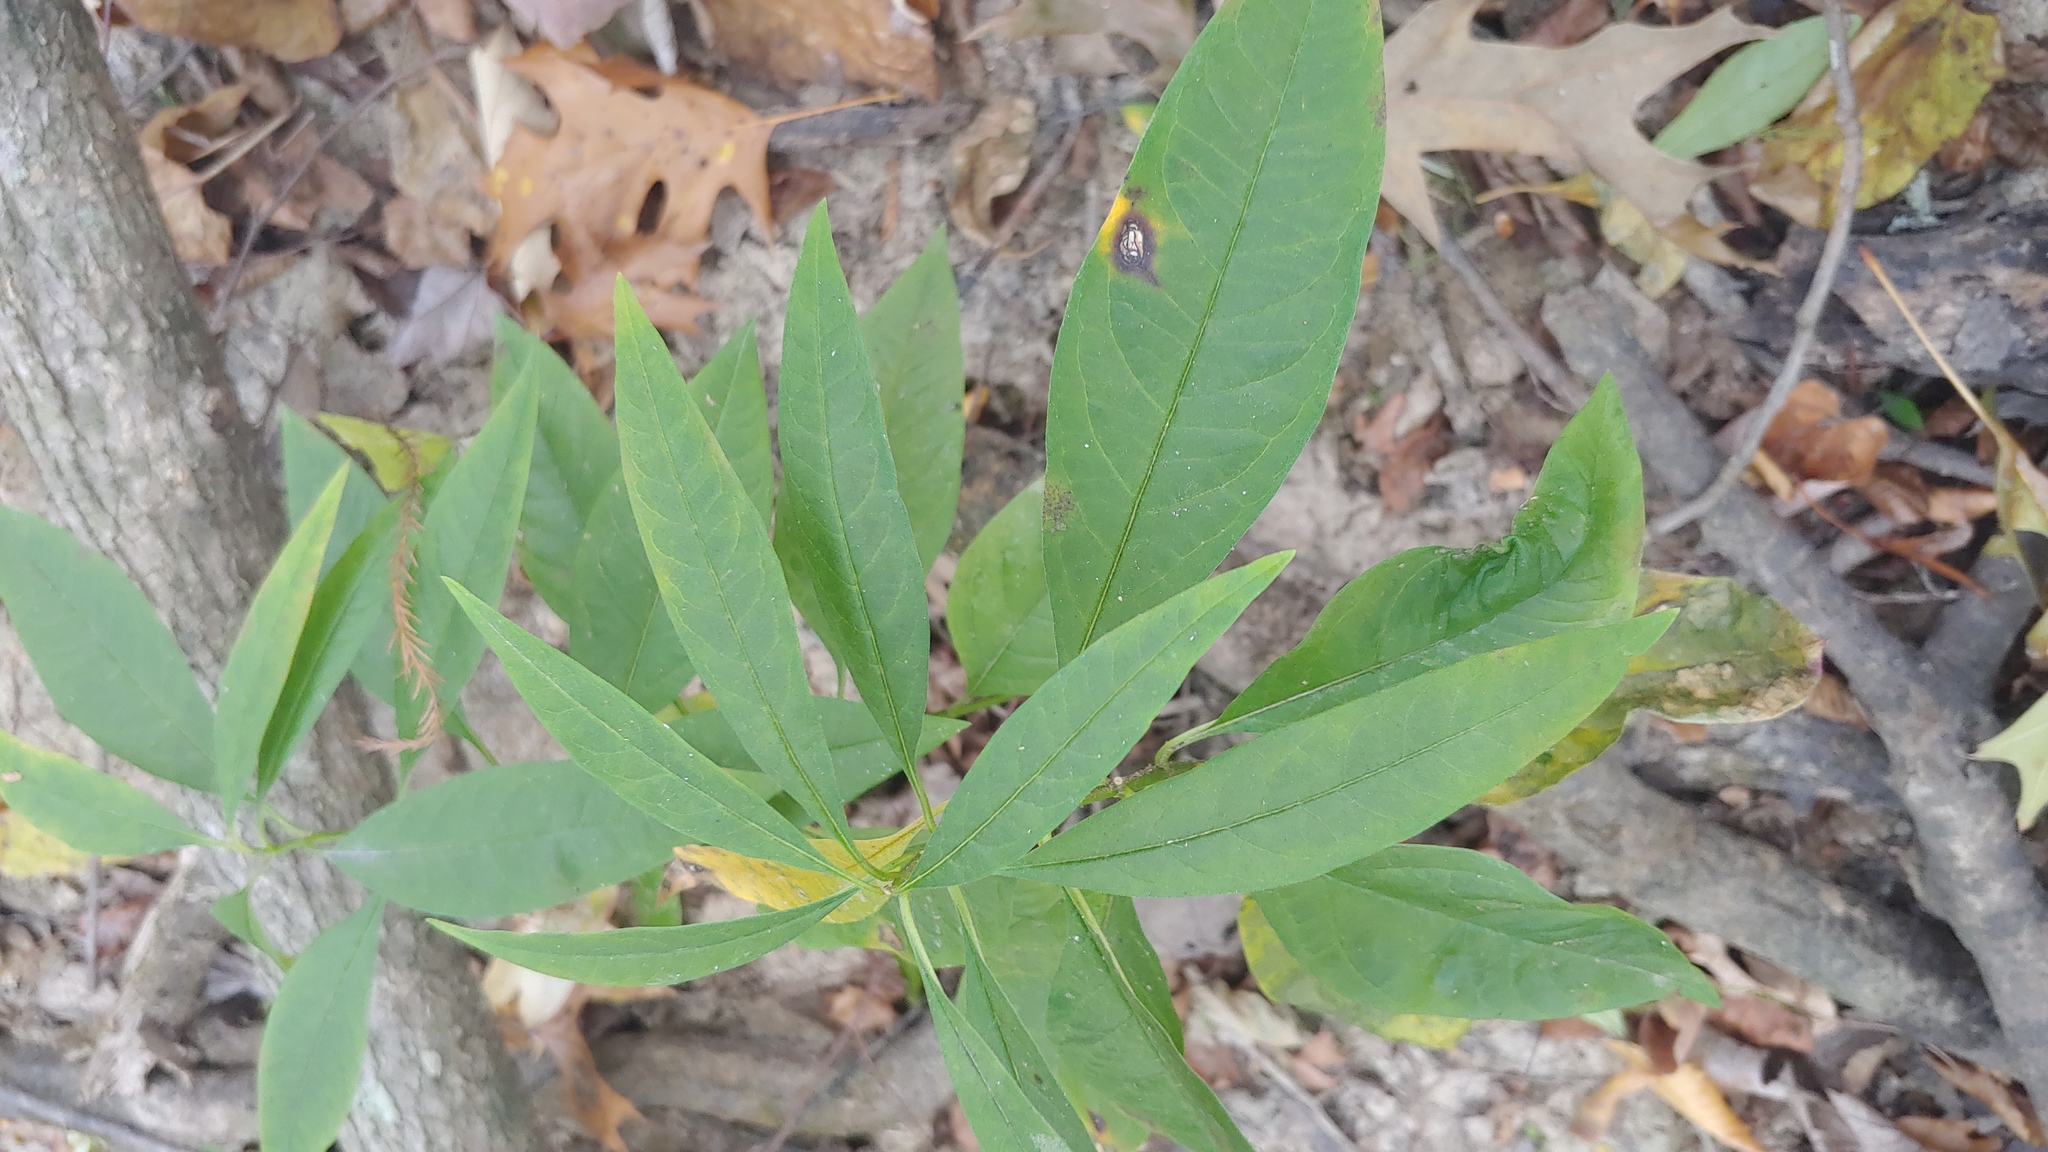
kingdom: Plantae
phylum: Tracheophyta
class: Magnoliopsida
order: Gentianales
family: Apocynaceae
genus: Asclepias
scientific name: Asclepias perennis
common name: Smooth-seed milkweed
